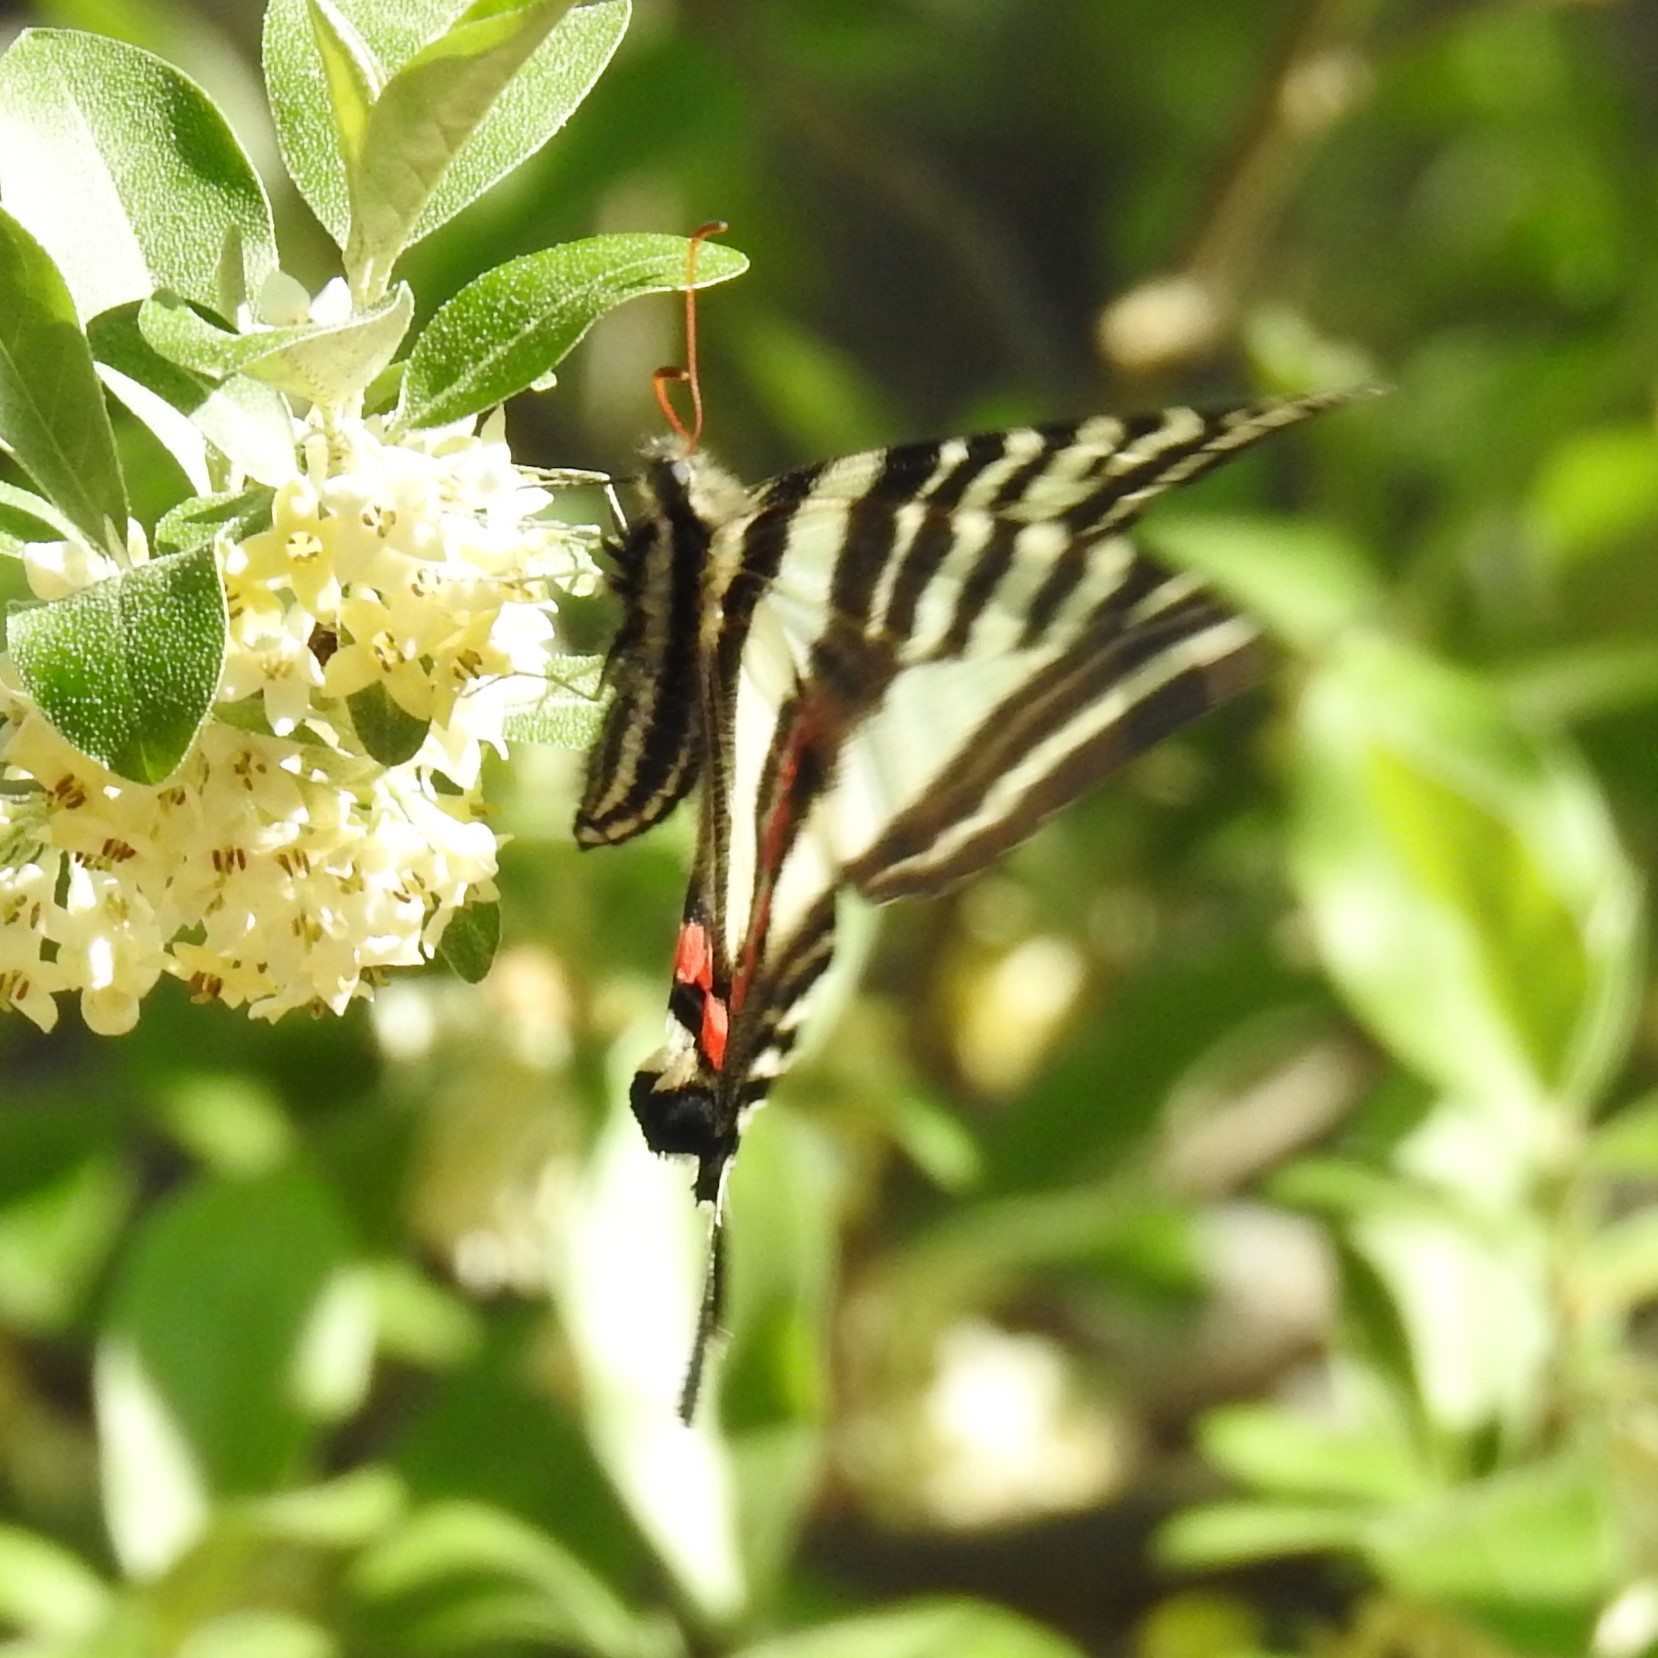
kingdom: Animalia
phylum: Arthropoda
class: Insecta
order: Lepidoptera
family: Papilionidae
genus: Protographium
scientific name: Protographium marcellus
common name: Zebra swallowtail
